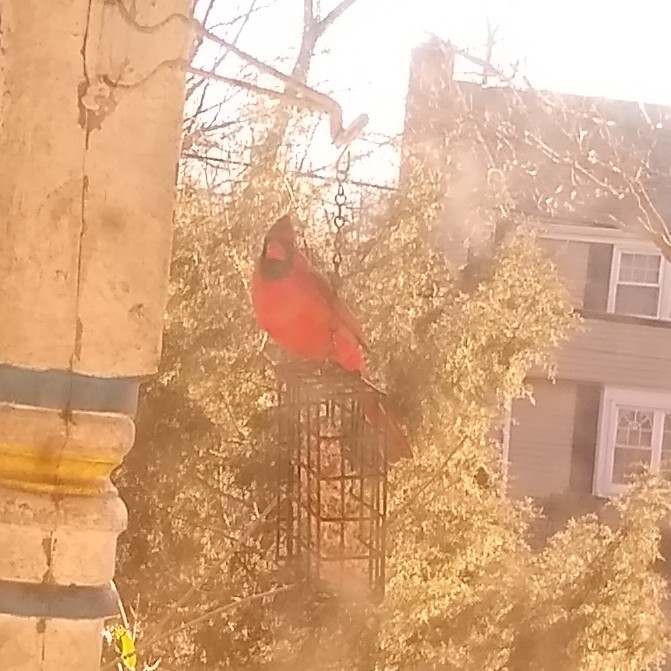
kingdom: Animalia
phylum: Chordata
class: Aves
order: Passeriformes
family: Cardinalidae
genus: Cardinalis
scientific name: Cardinalis cardinalis
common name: Northern cardinal
